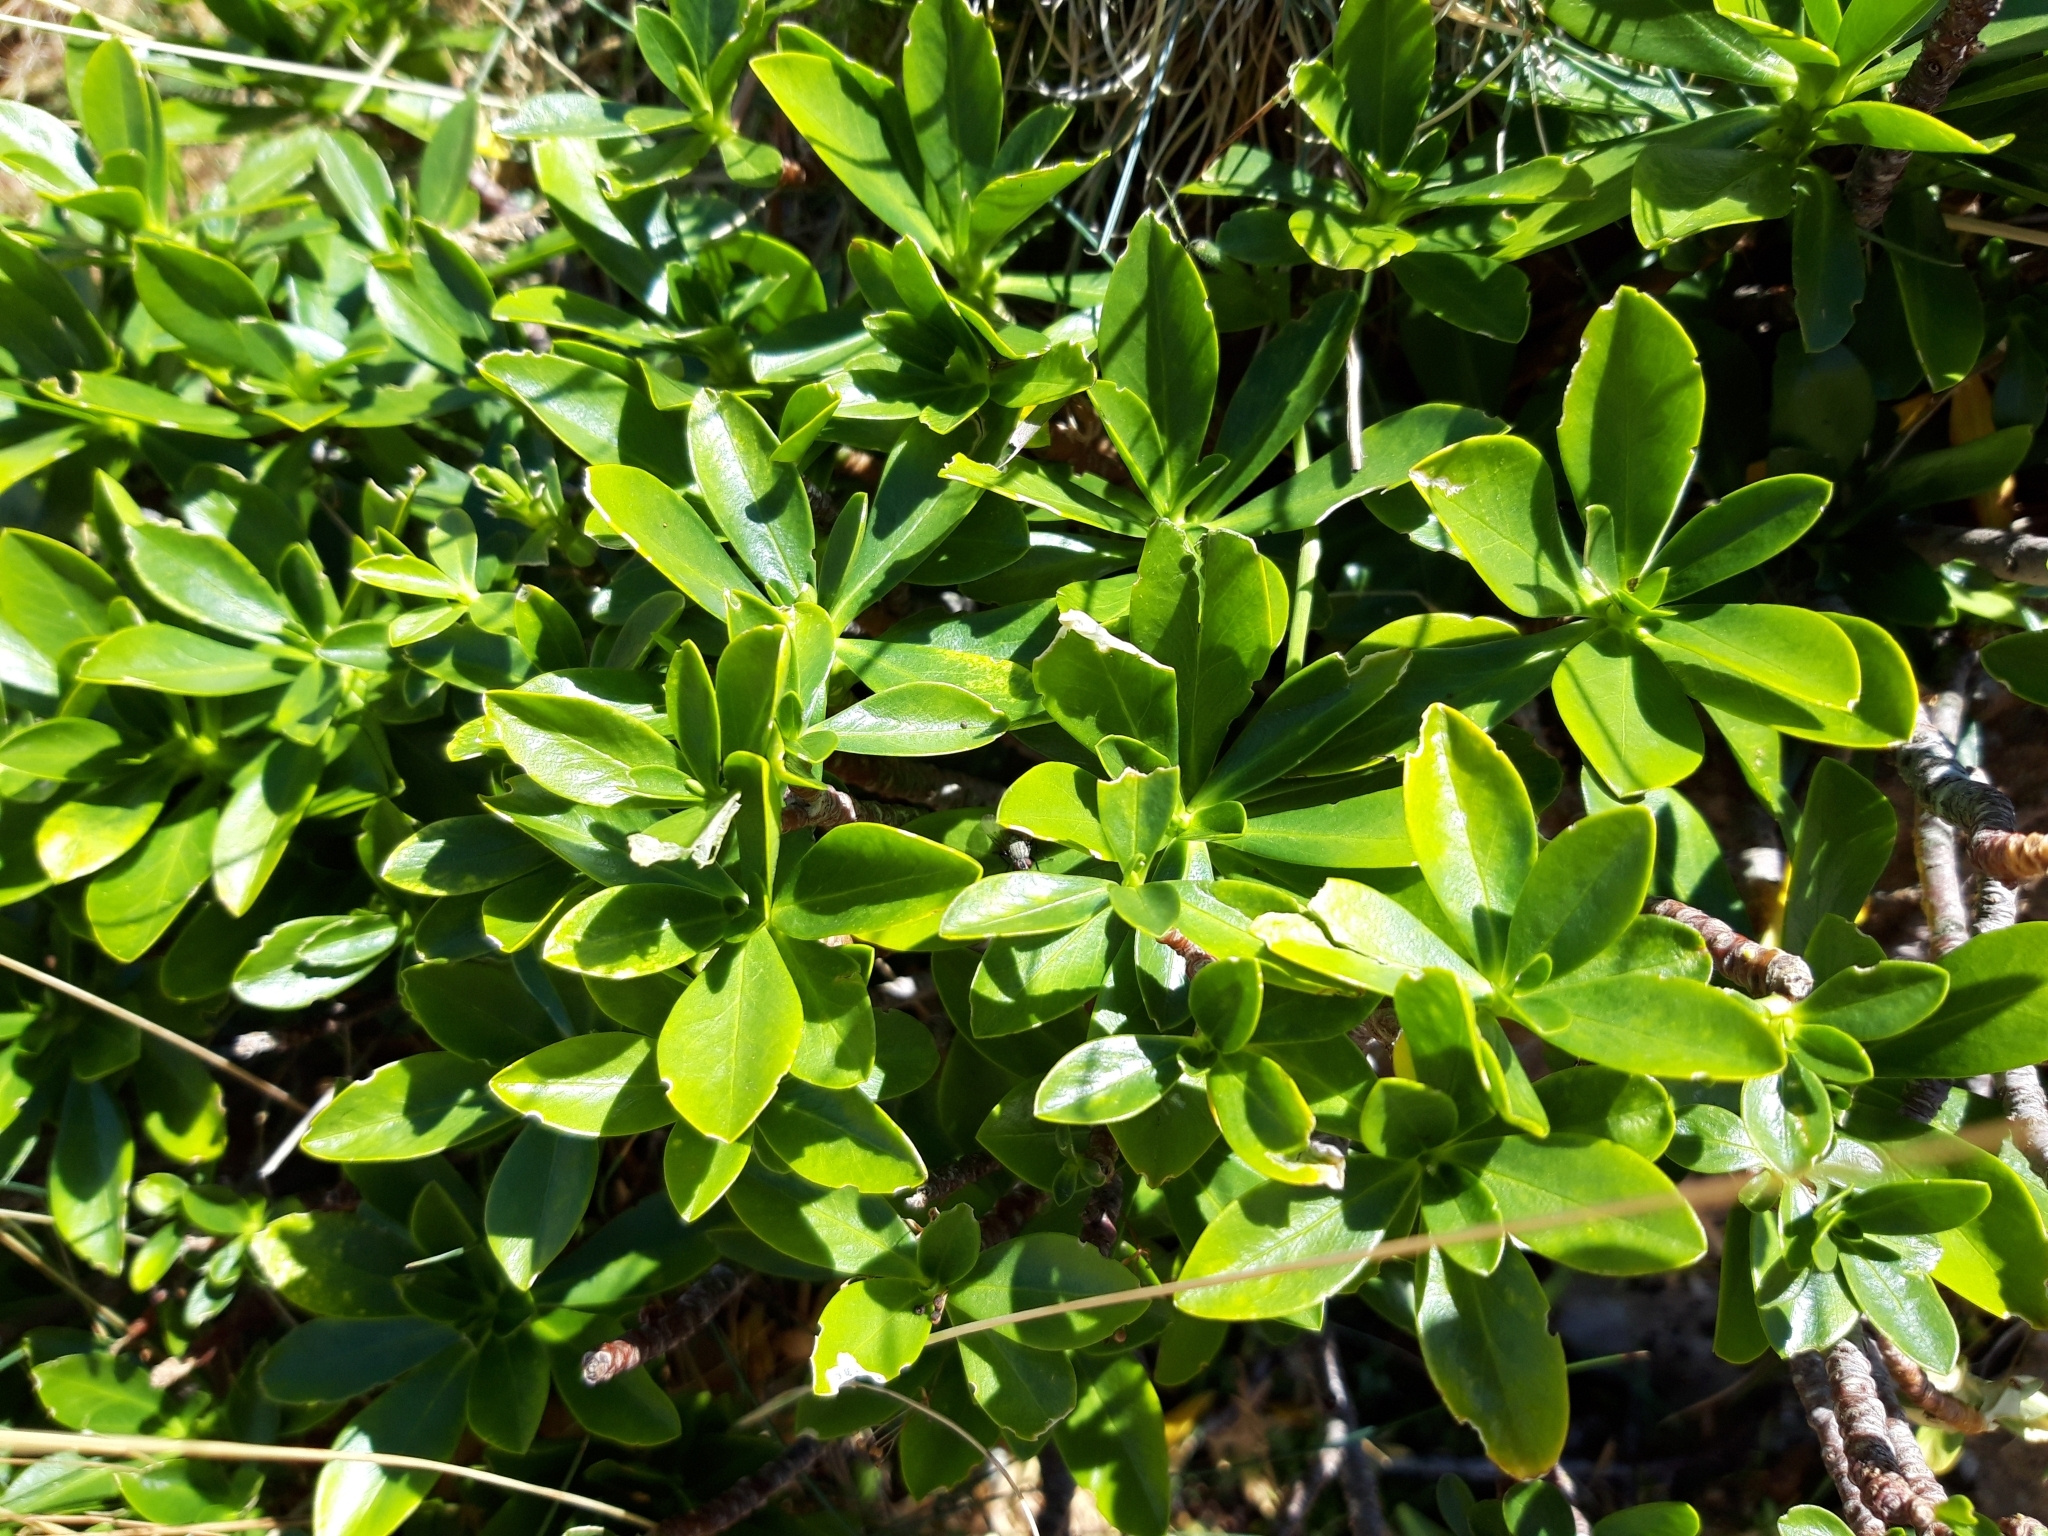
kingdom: Plantae
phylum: Tracheophyta
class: Magnoliopsida
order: Malvales
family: Thymelaeaceae
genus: Daphne
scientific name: Daphne laureola
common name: Spurge-laurel
